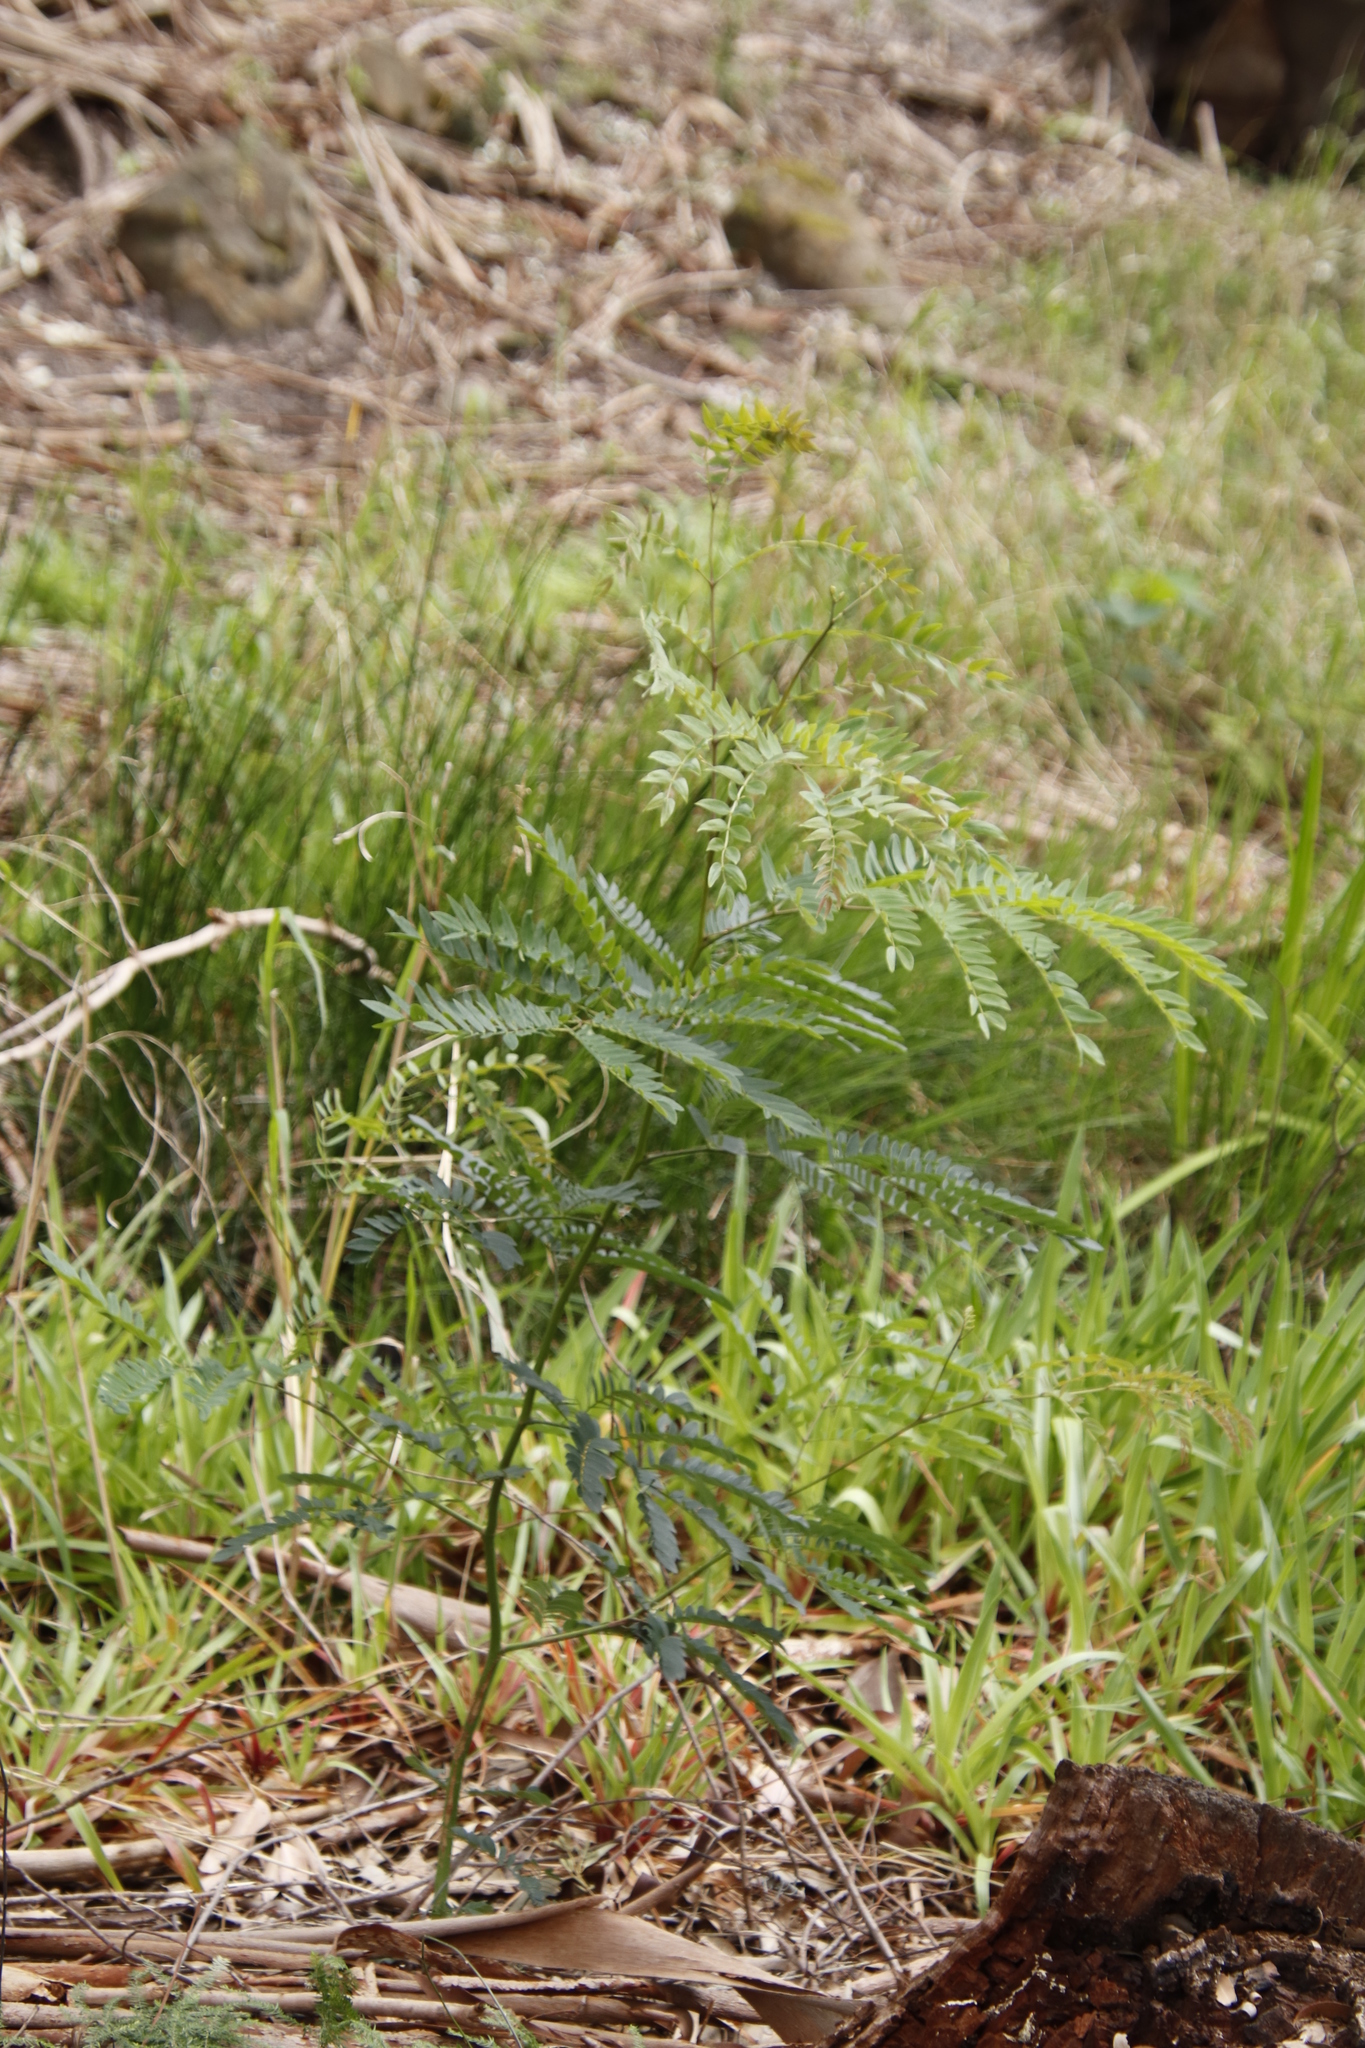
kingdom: Plantae
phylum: Tracheophyta
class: Magnoliopsida
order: Fabales
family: Fabaceae
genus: Paraserianthes
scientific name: Paraserianthes lophantha
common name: Plume albizia
